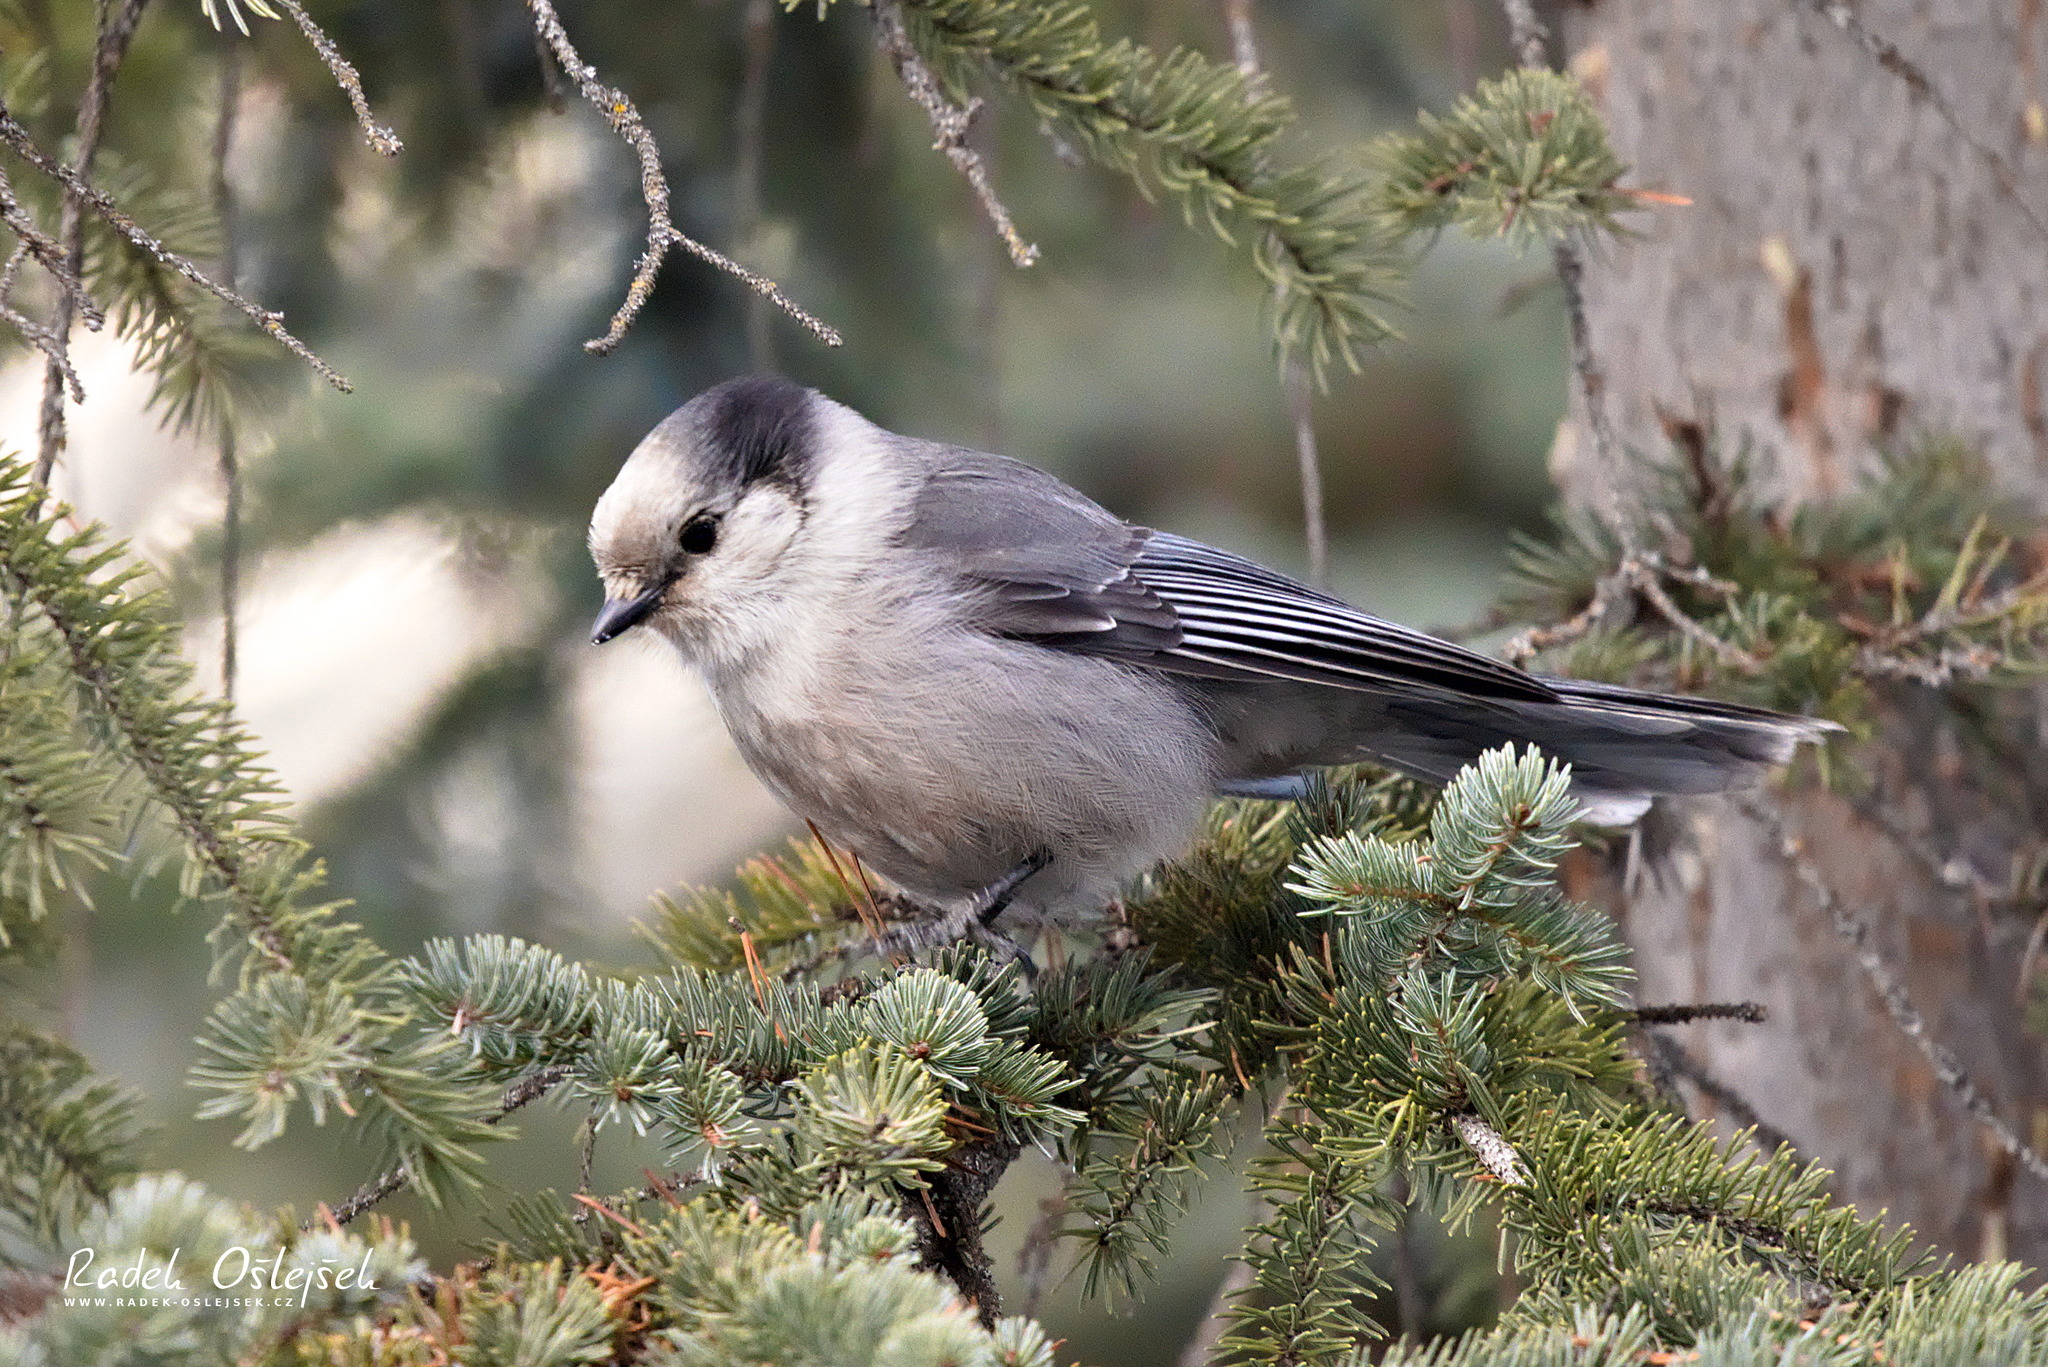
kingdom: Animalia
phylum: Chordata
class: Aves
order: Passeriformes
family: Corvidae
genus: Perisoreus
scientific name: Perisoreus canadensis
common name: Gray jay
